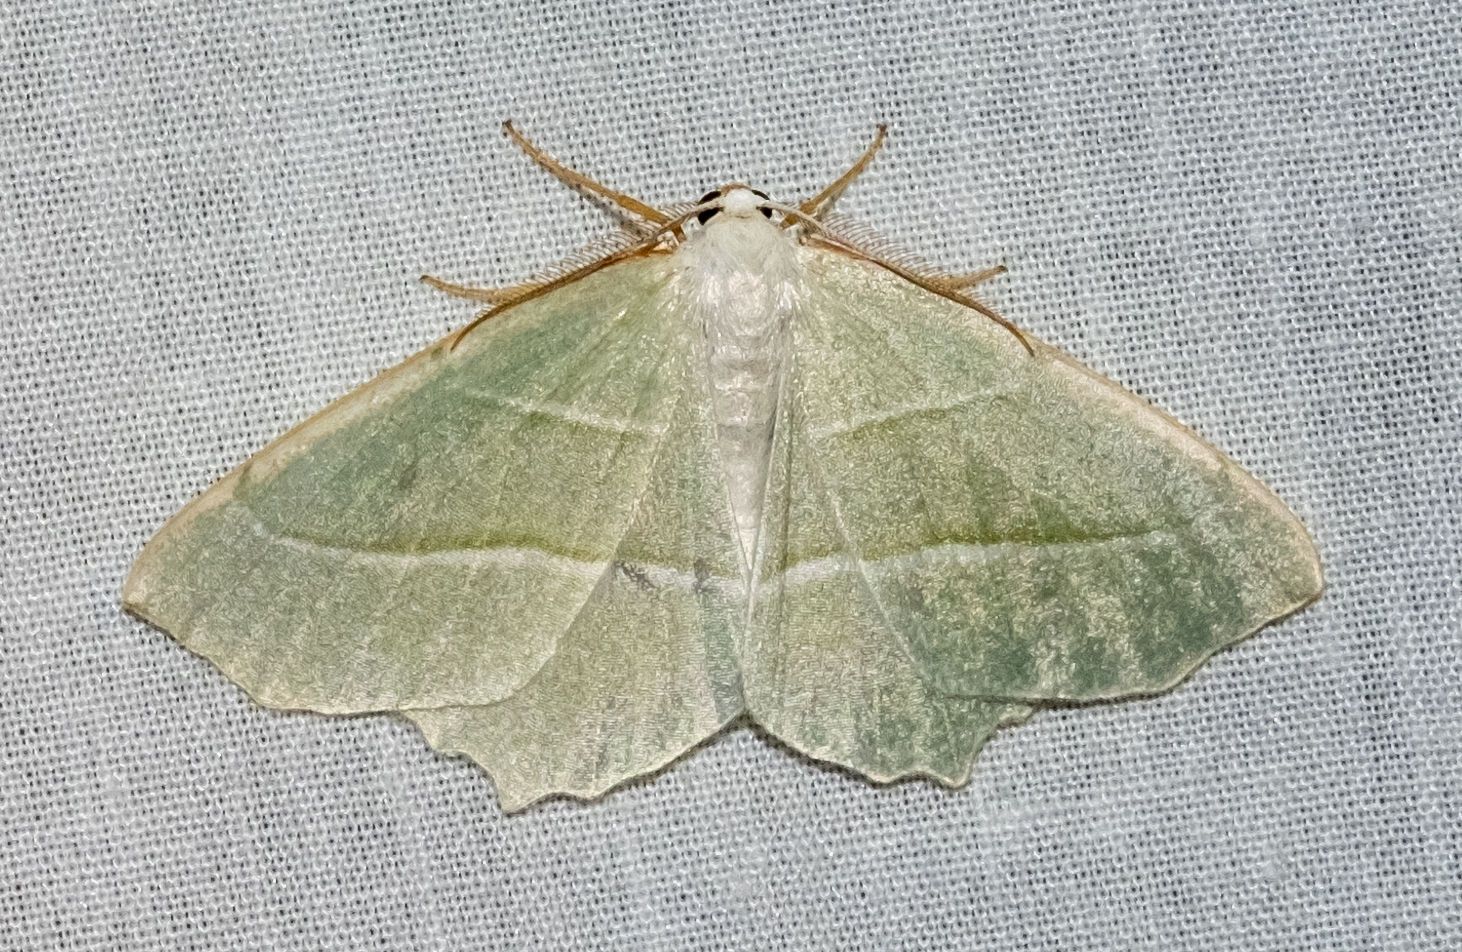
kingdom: Animalia
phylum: Arthropoda
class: Insecta
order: Lepidoptera
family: Geometridae
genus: Campaea
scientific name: Campaea margaritaria
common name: Light emerald
